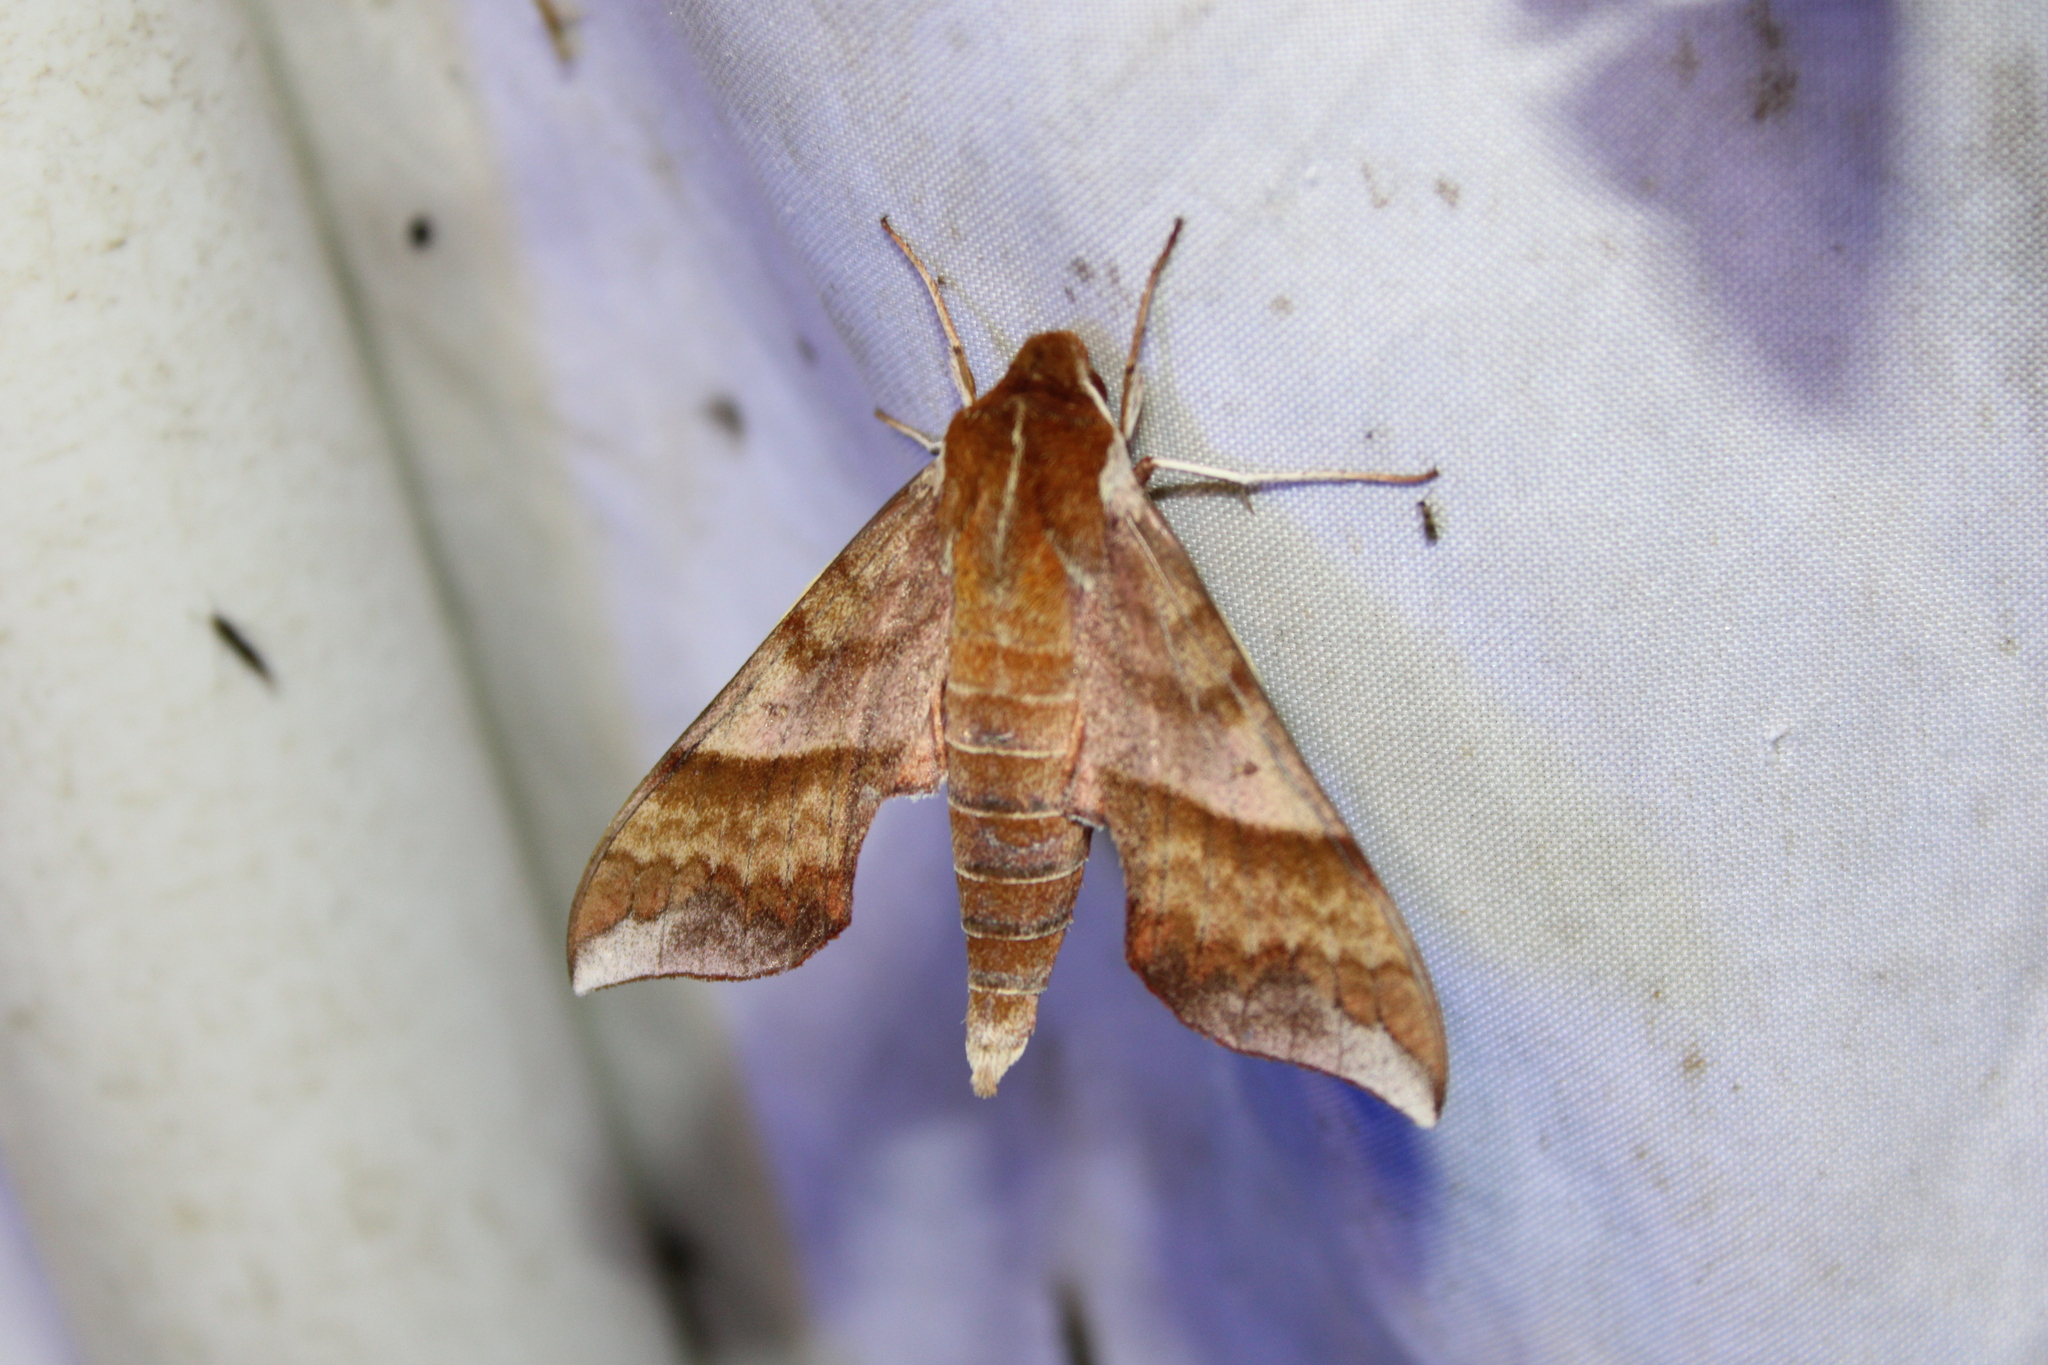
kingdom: Animalia
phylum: Arthropoda
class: Insecta
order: Lepidoptera
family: Sphingidae
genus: Darapsa
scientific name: Darapsa choerilus
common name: Azalea sphinx
